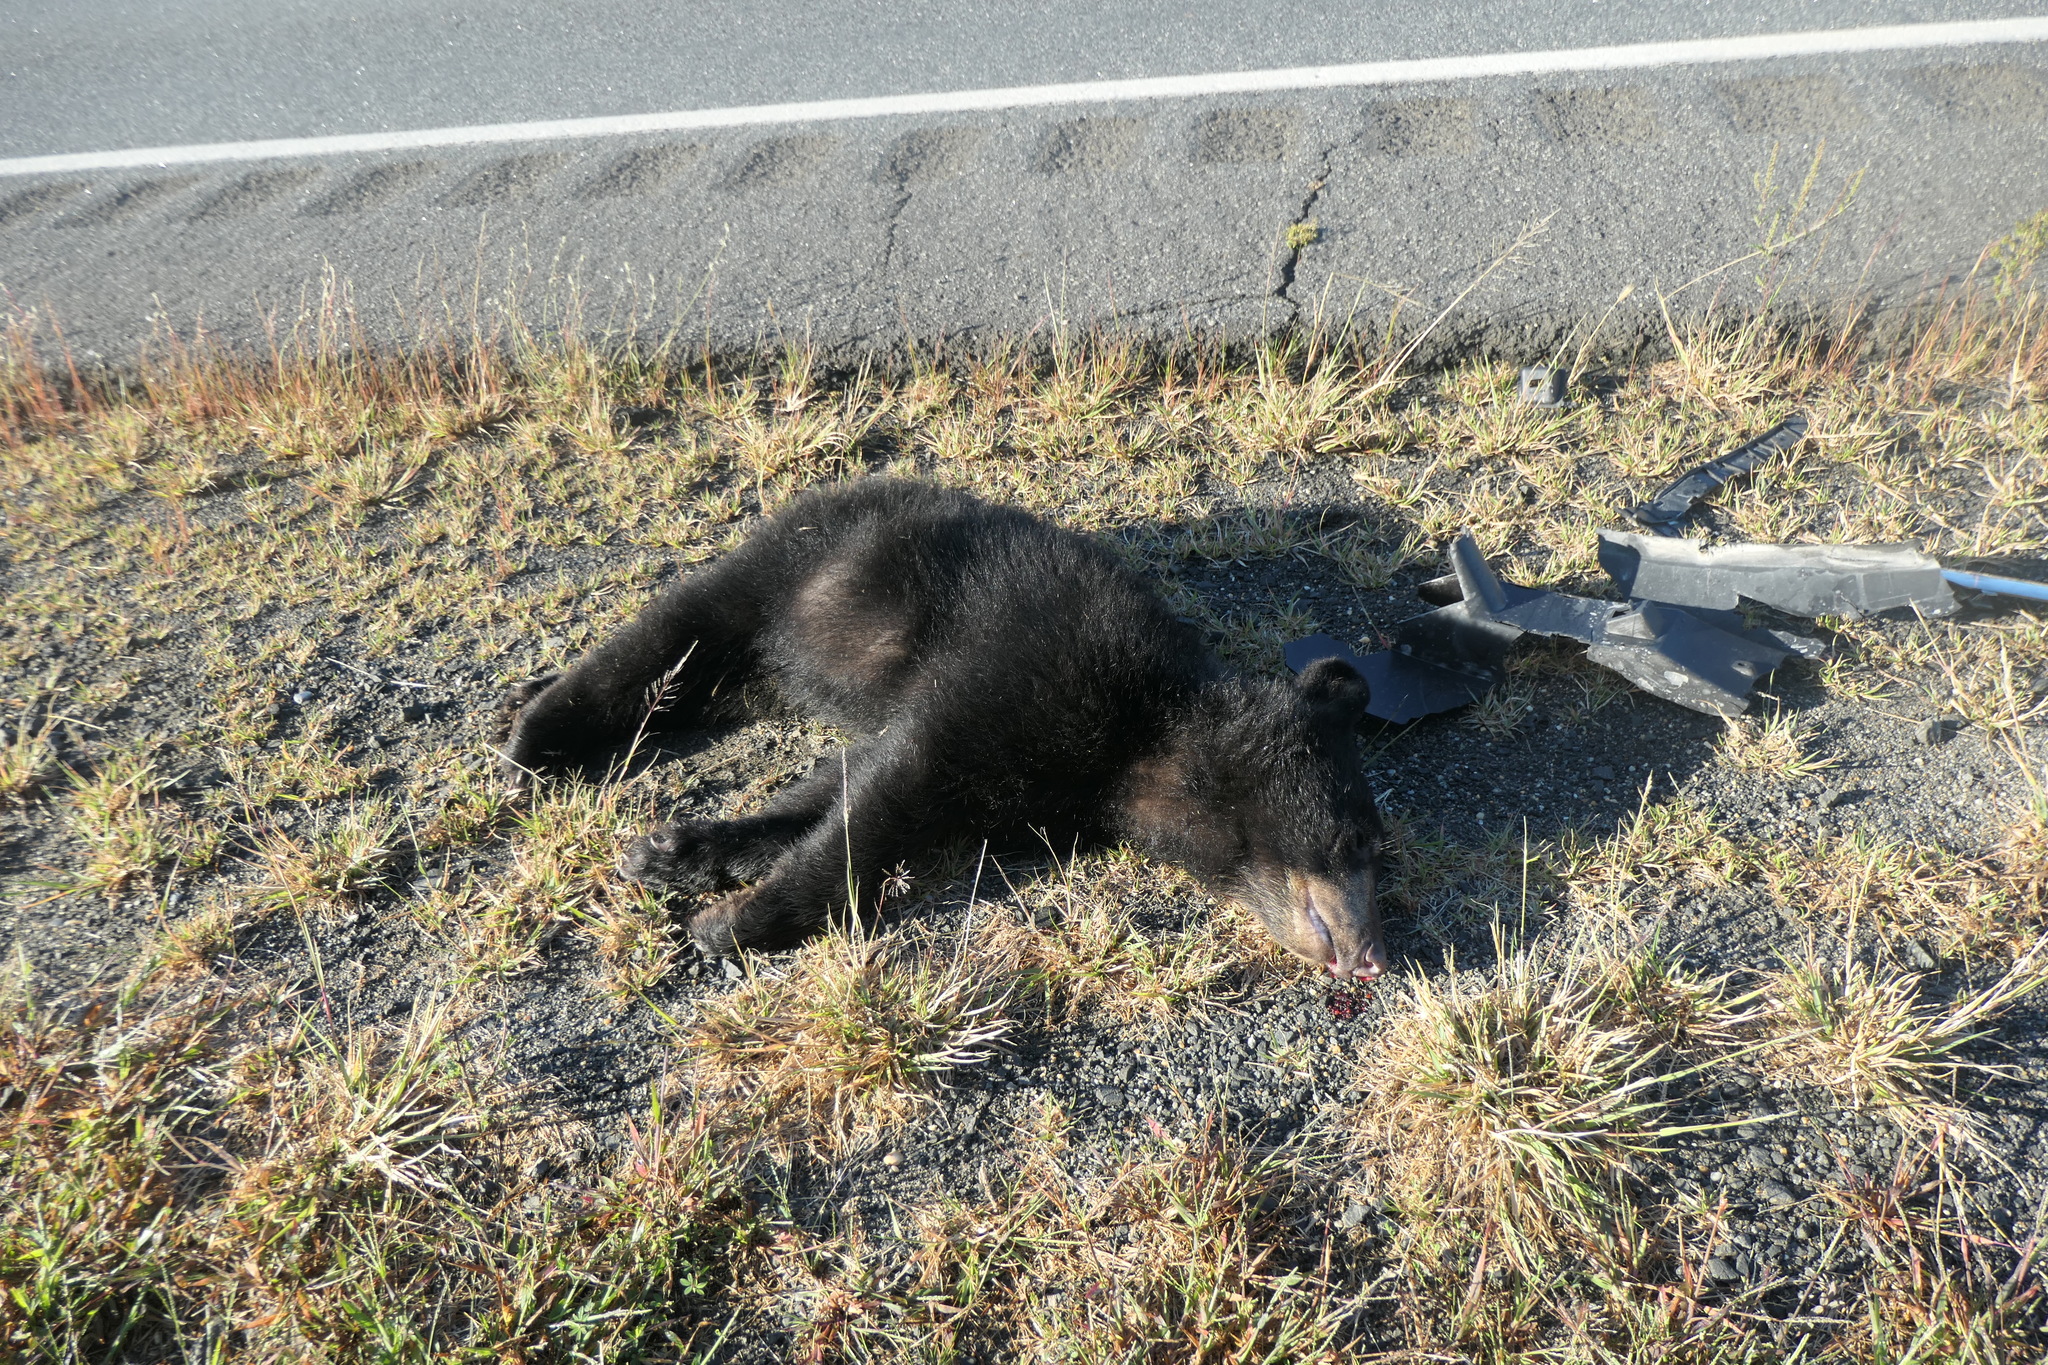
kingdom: Animalia
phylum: Chordata
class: Mammalia
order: Carnivora
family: Ursidae
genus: Ursus
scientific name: Ursus americanus
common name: American black bear
